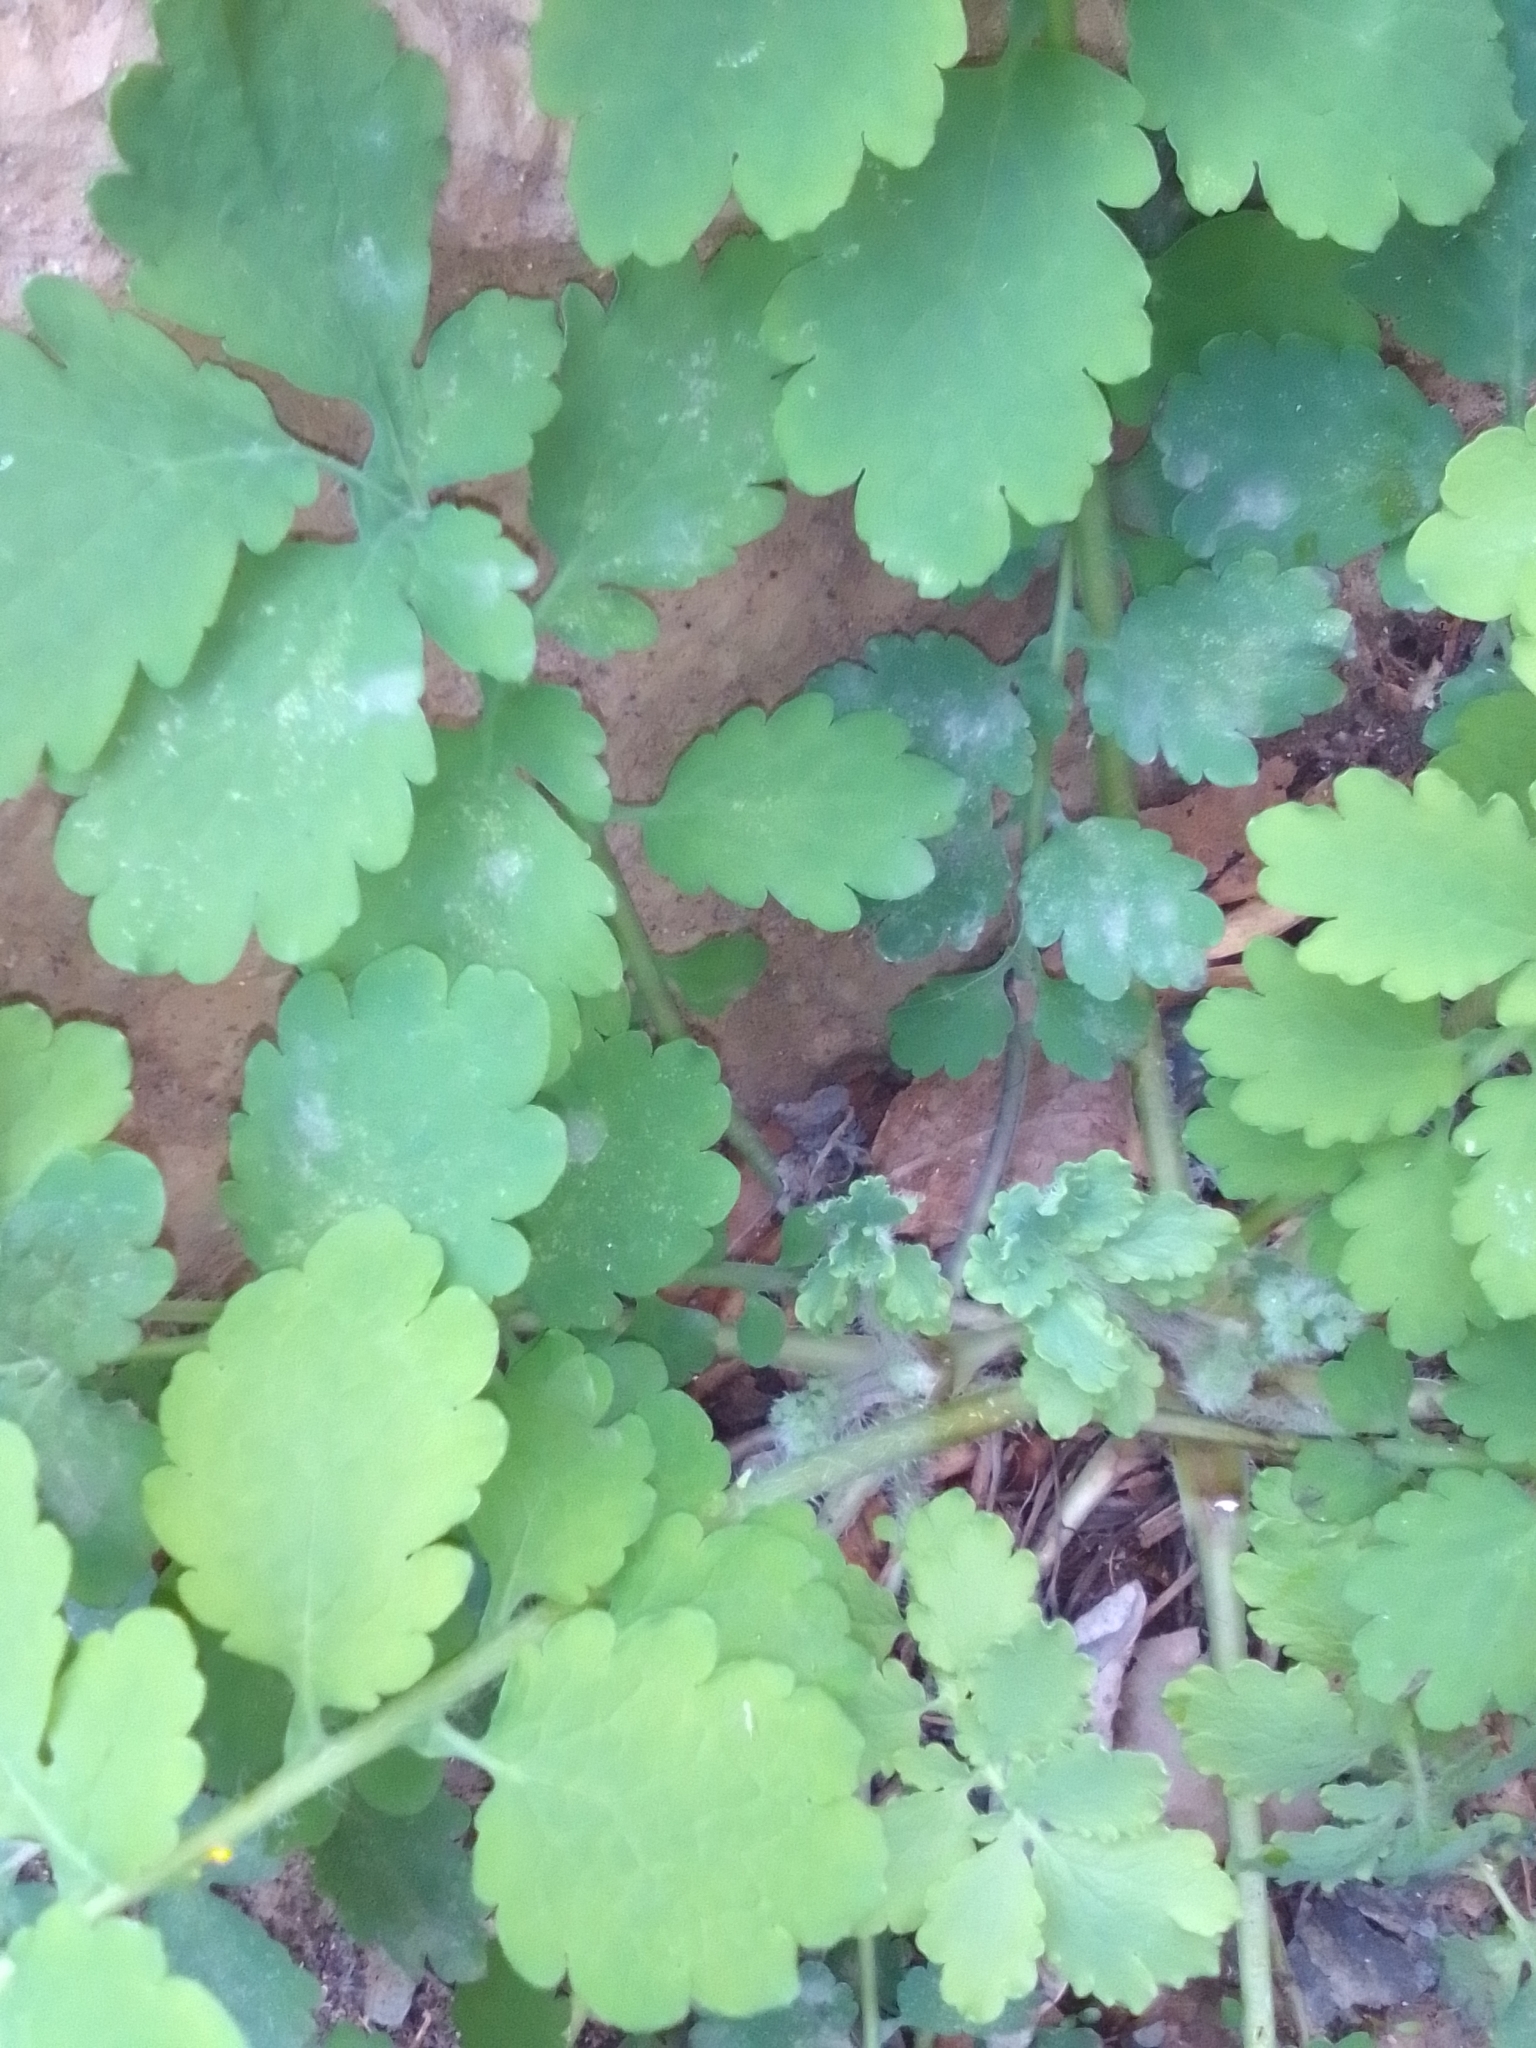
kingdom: Plantae
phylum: Tracheophyta
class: Magnoliopsida
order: Ranunculales
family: Papaveraceae
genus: Chelidonium
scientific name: Chelidonium majus
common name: Greater celandine
